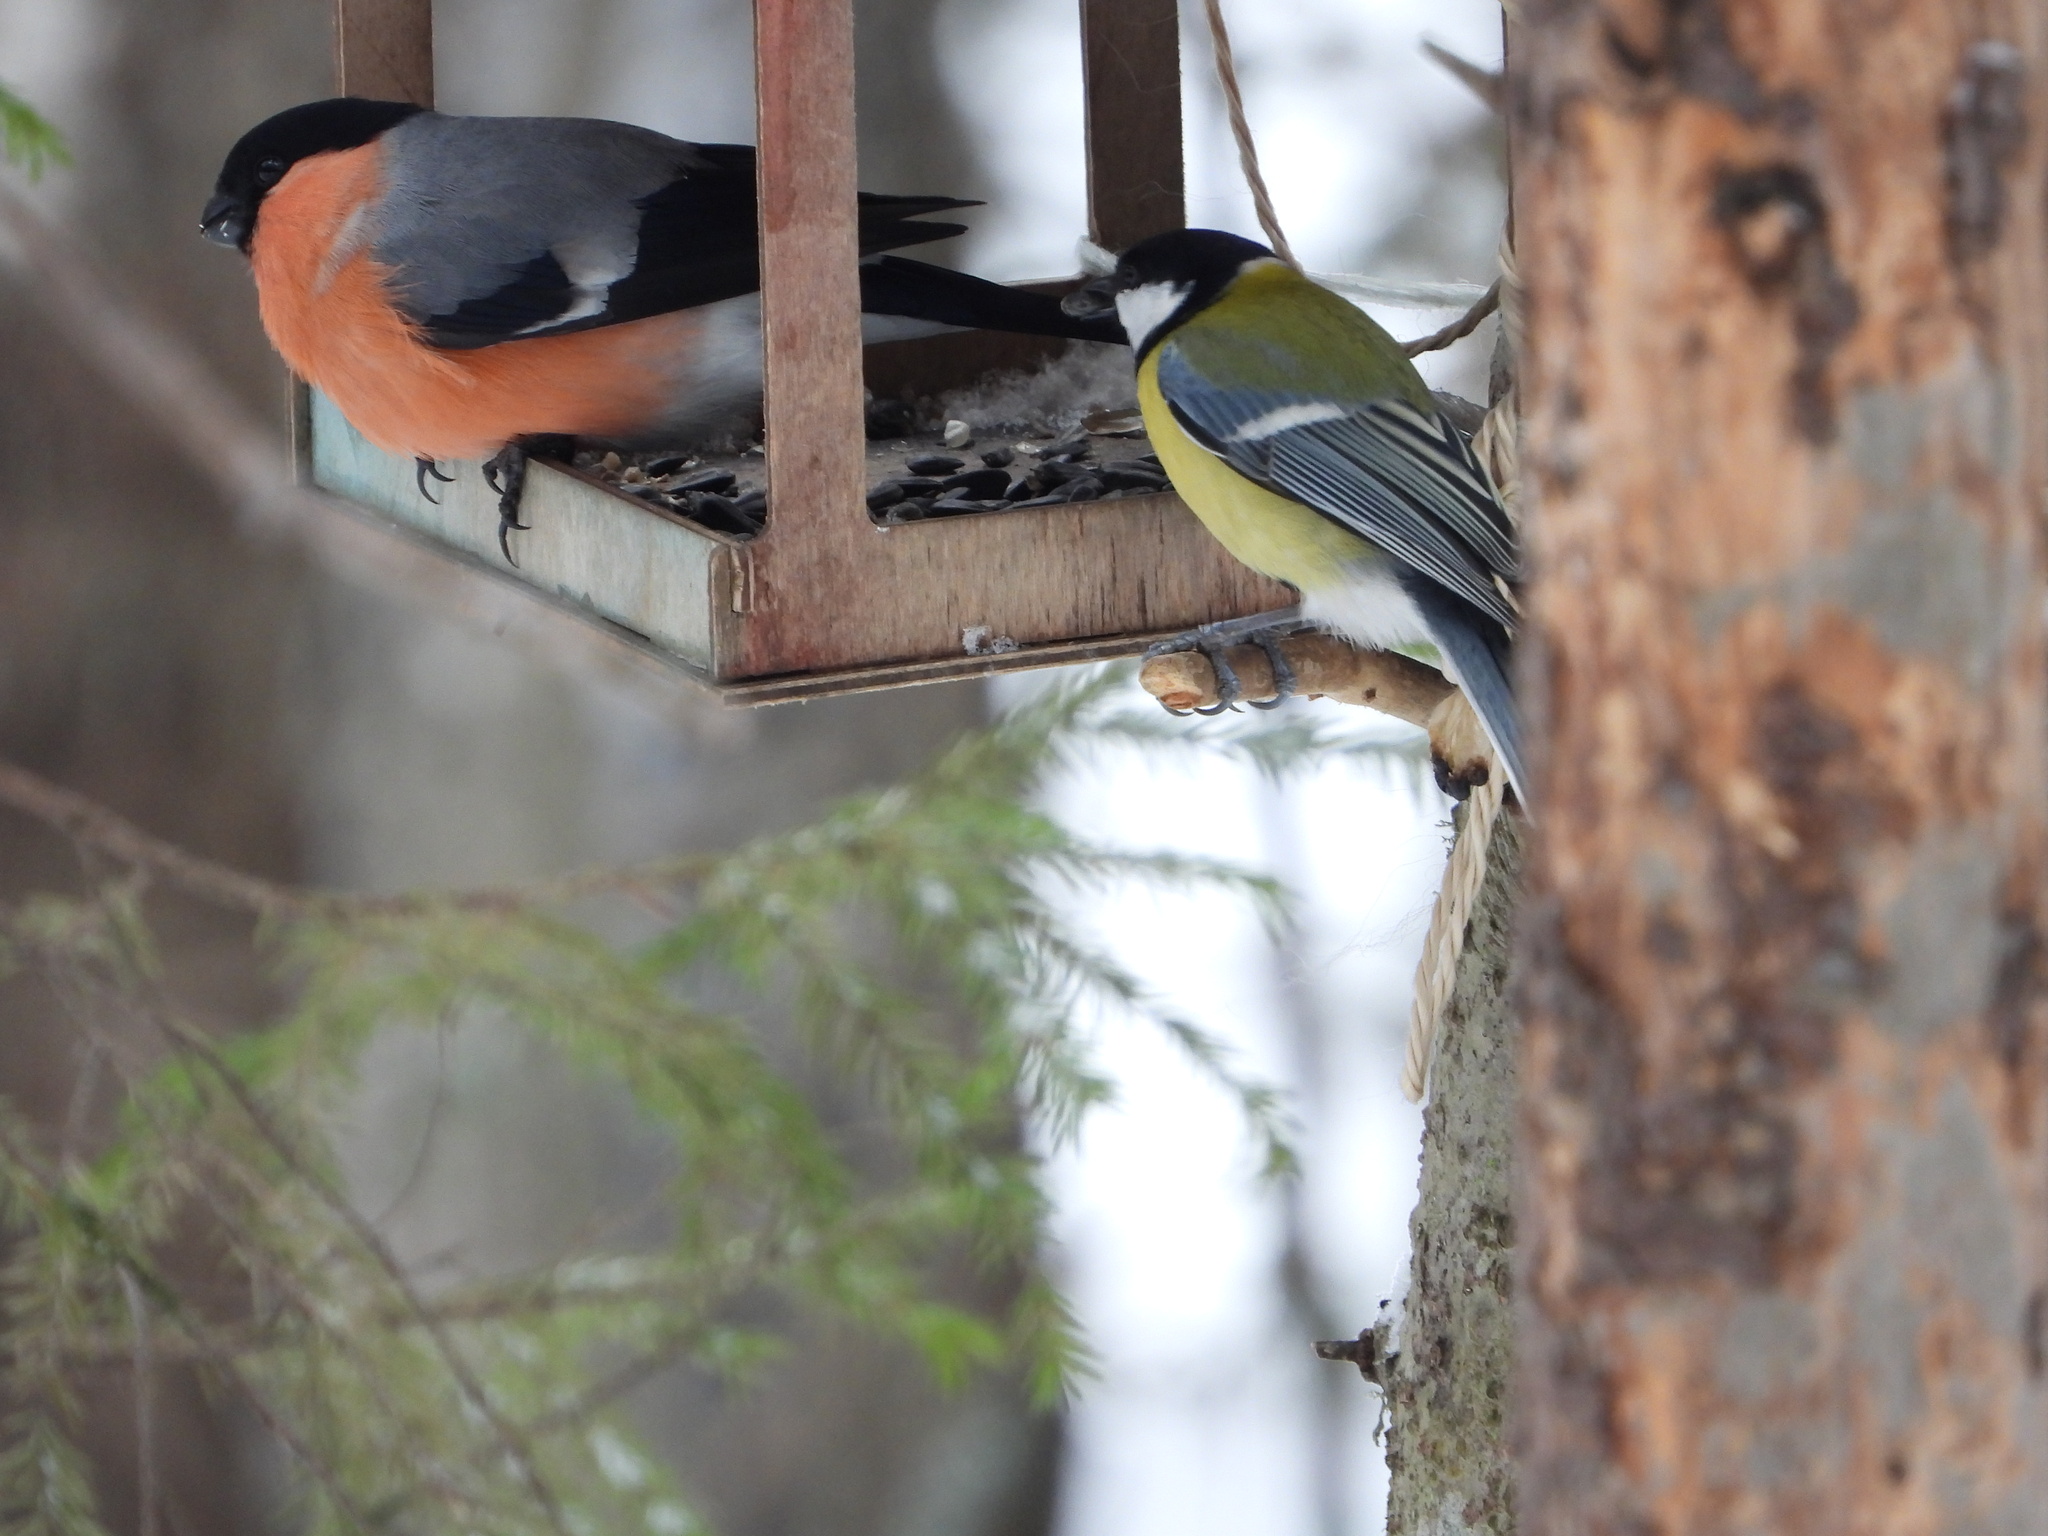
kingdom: Animalia
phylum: Chordata
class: Aves
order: Passeriformes
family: Paridae
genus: Parus
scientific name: Parus major
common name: Great tit
